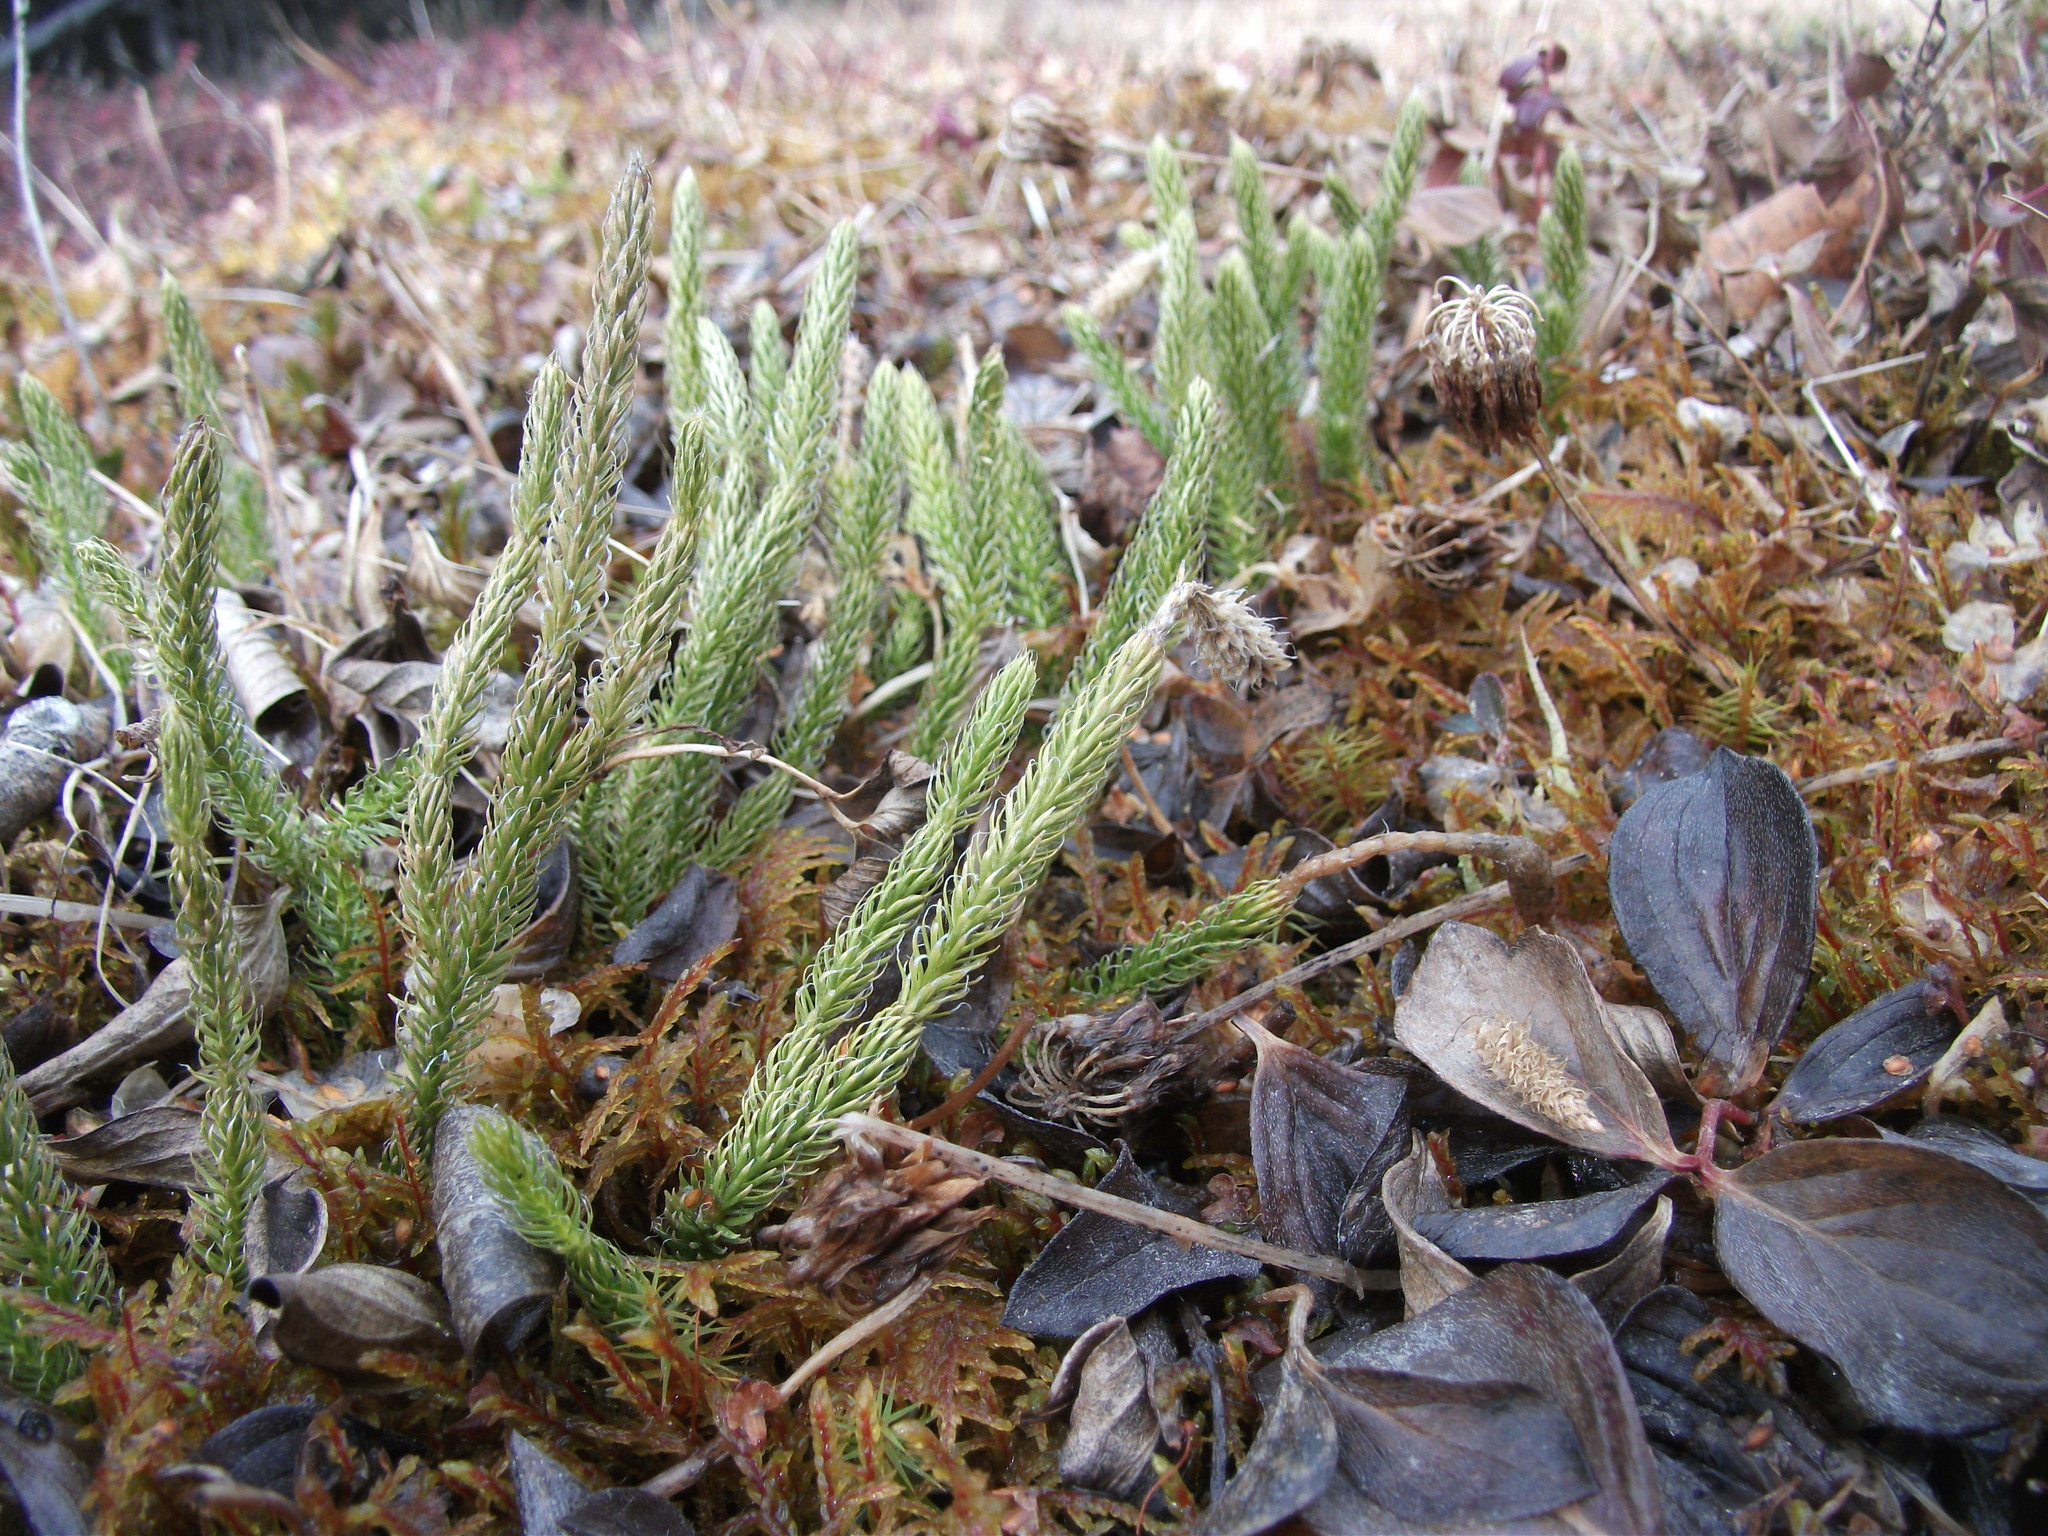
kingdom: Plantae
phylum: Tracheophyta
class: Lycopodiopsida
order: Lycopodiales
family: Lycopodiaceae
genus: Lycopodium
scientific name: Lycopodium lagopus
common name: One-cone clubmoss
